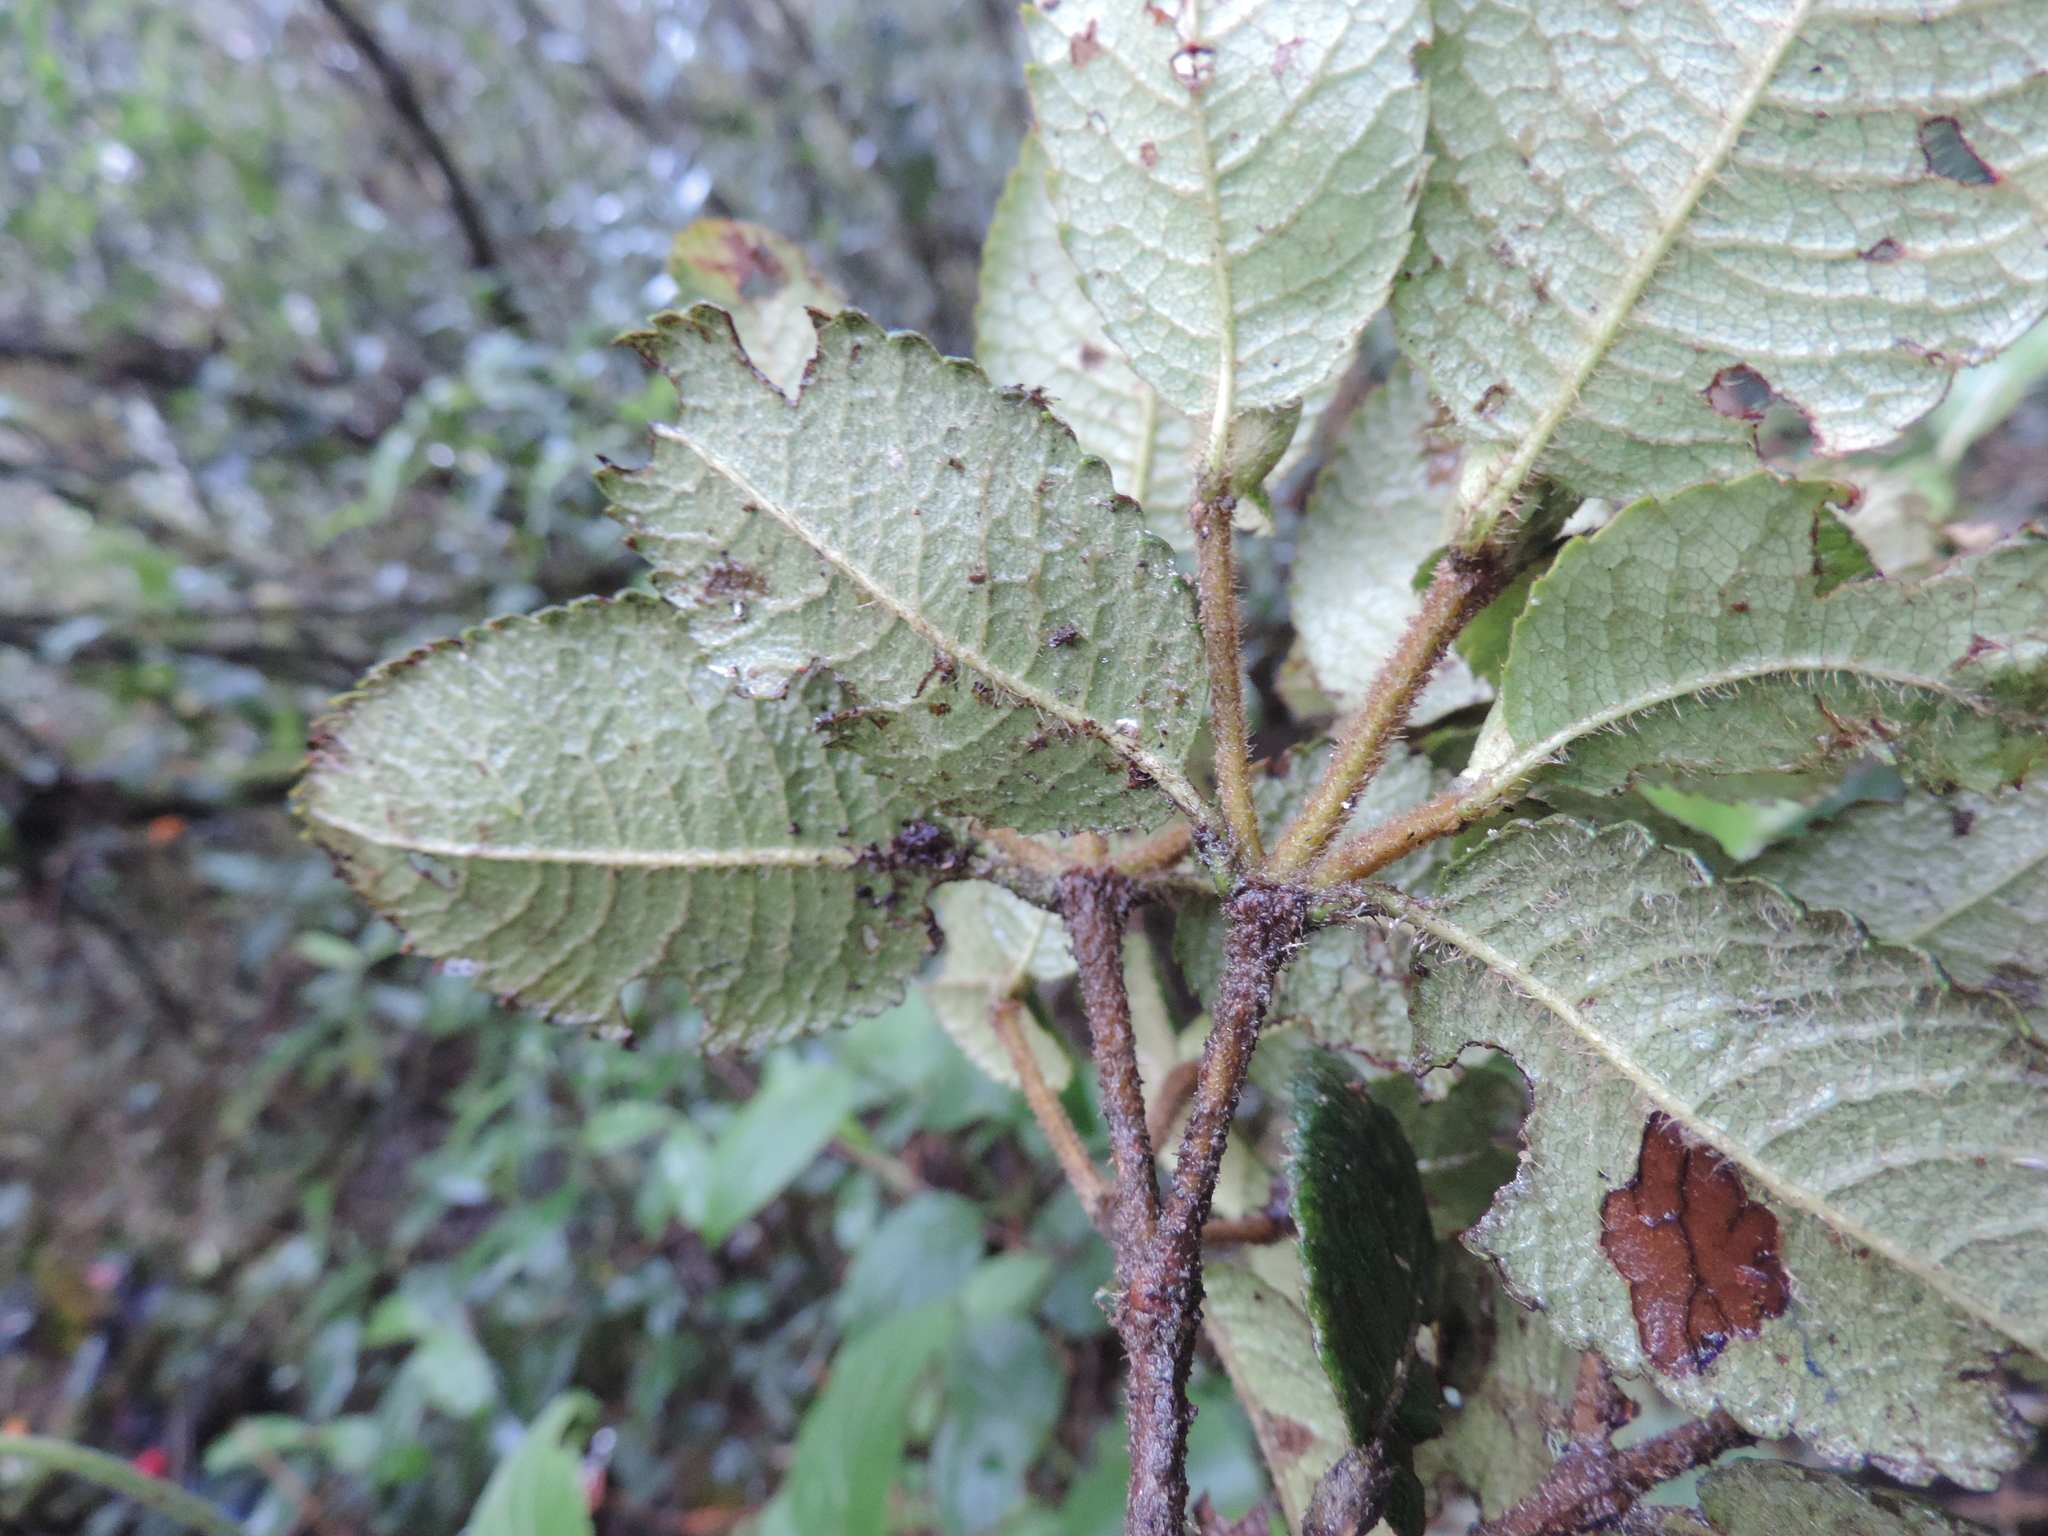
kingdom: Plantae
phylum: Tracheophyta
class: Magnoliopsida
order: Oxalidales
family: Cunoniaceae
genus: Weinmannia
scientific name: Weinmannia rollottii
